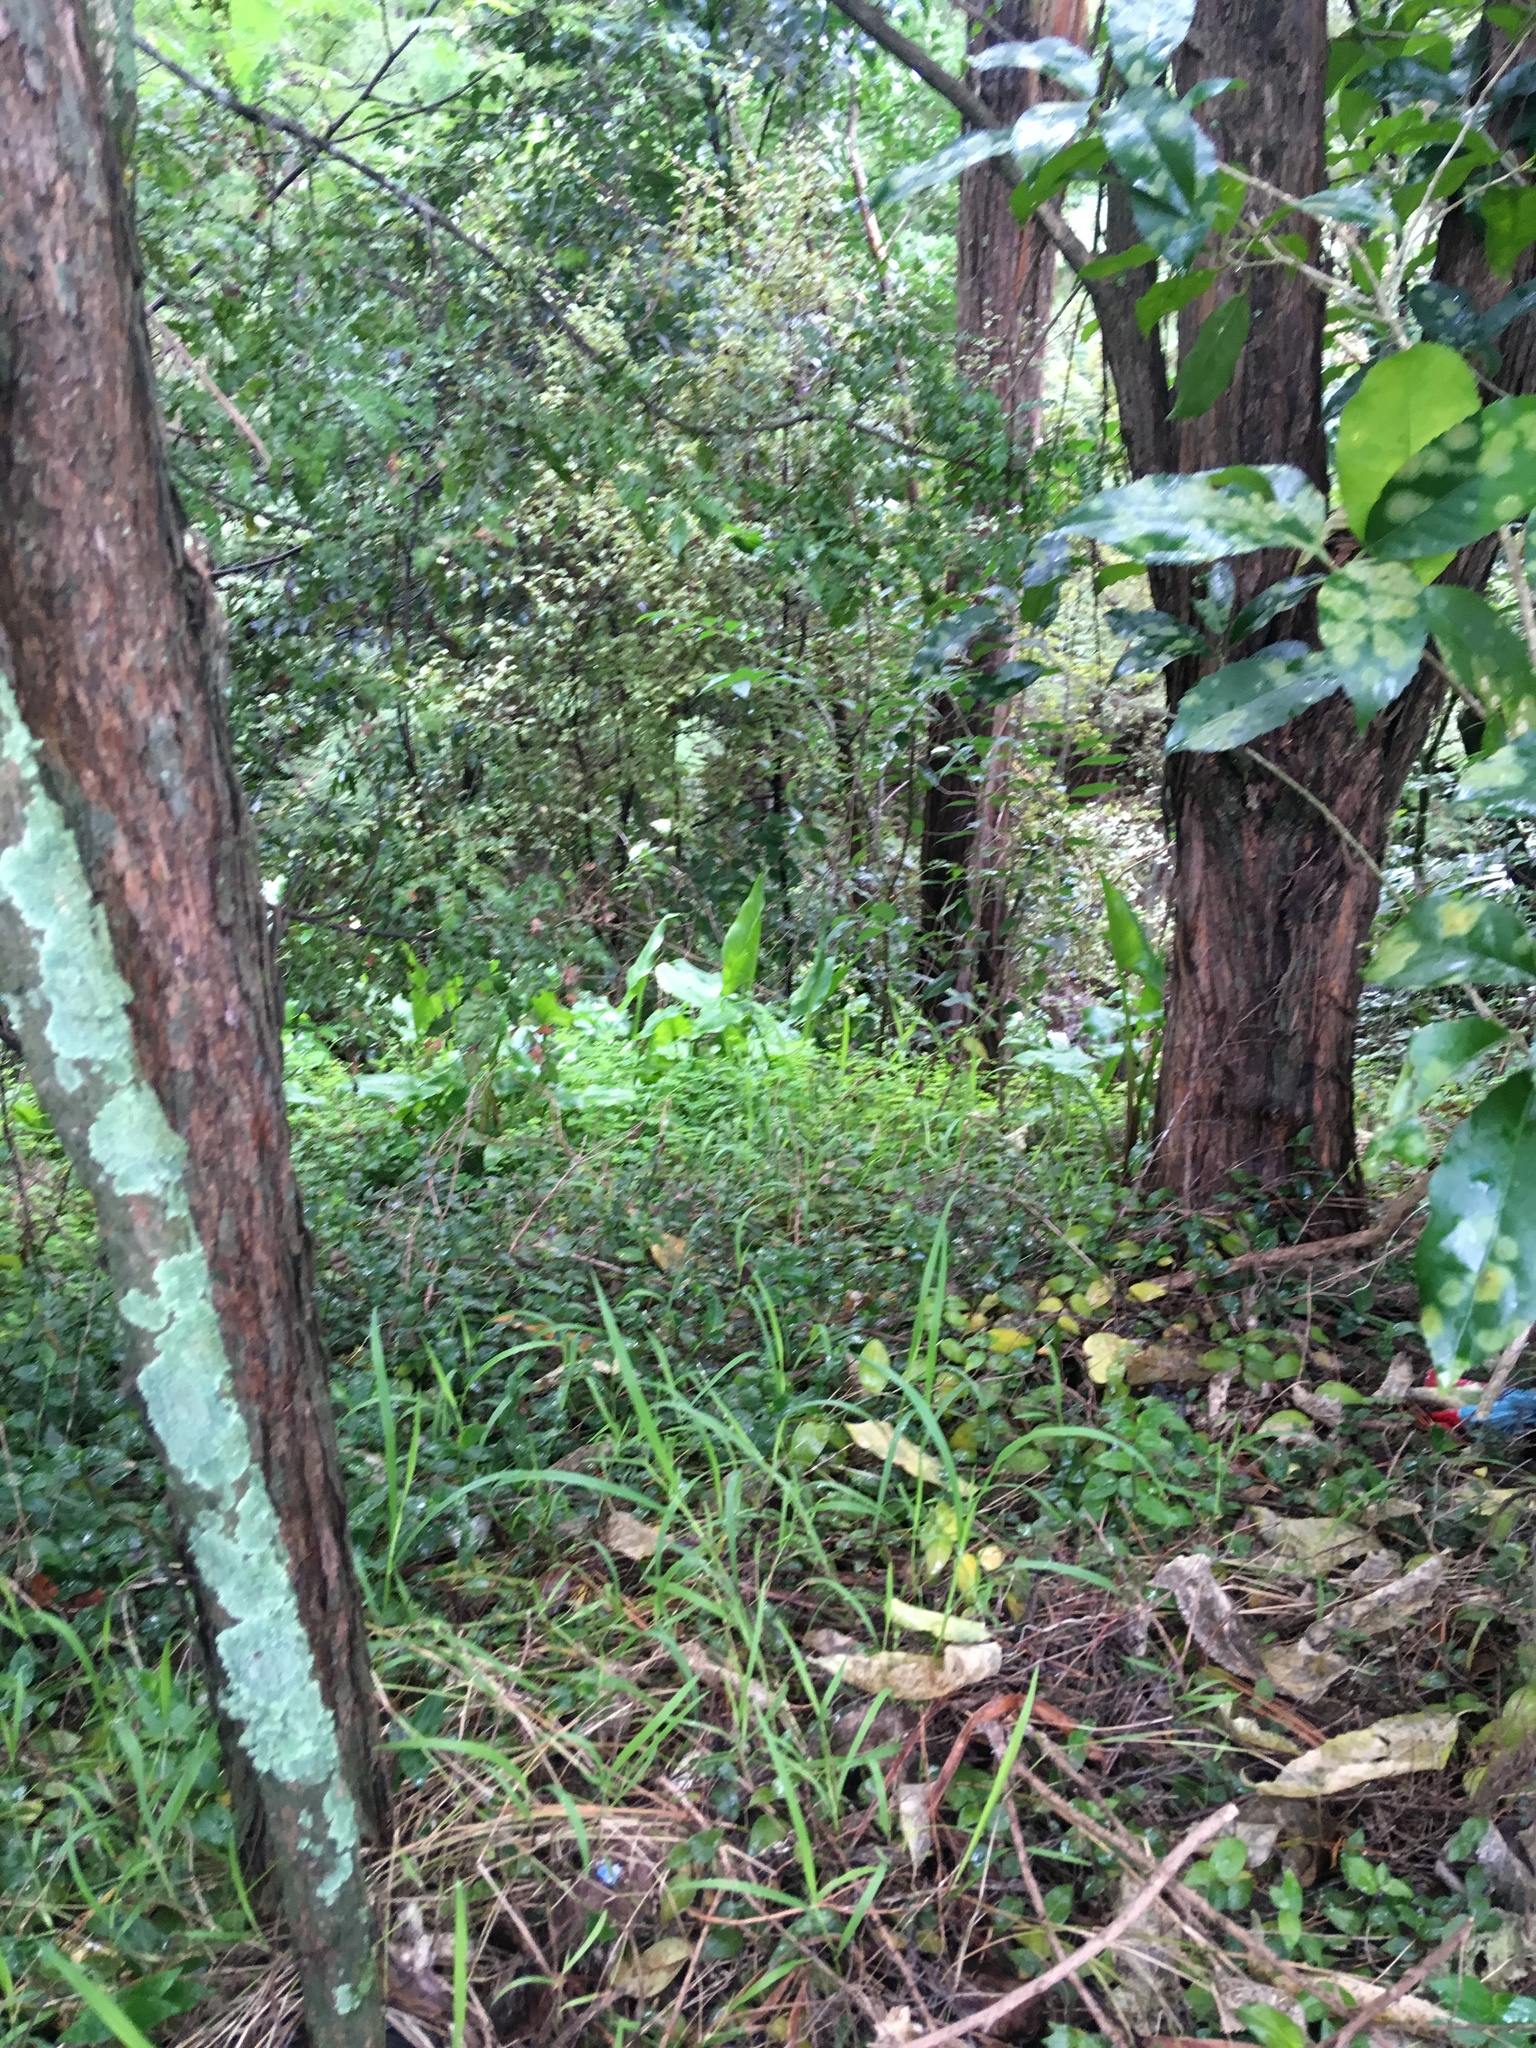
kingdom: Plantae
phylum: Tracheophyta
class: Liliopsida
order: Alismatales
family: Araceae
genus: Zantedeschia
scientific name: Zantedeschia aethiopica
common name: Altar-lily
